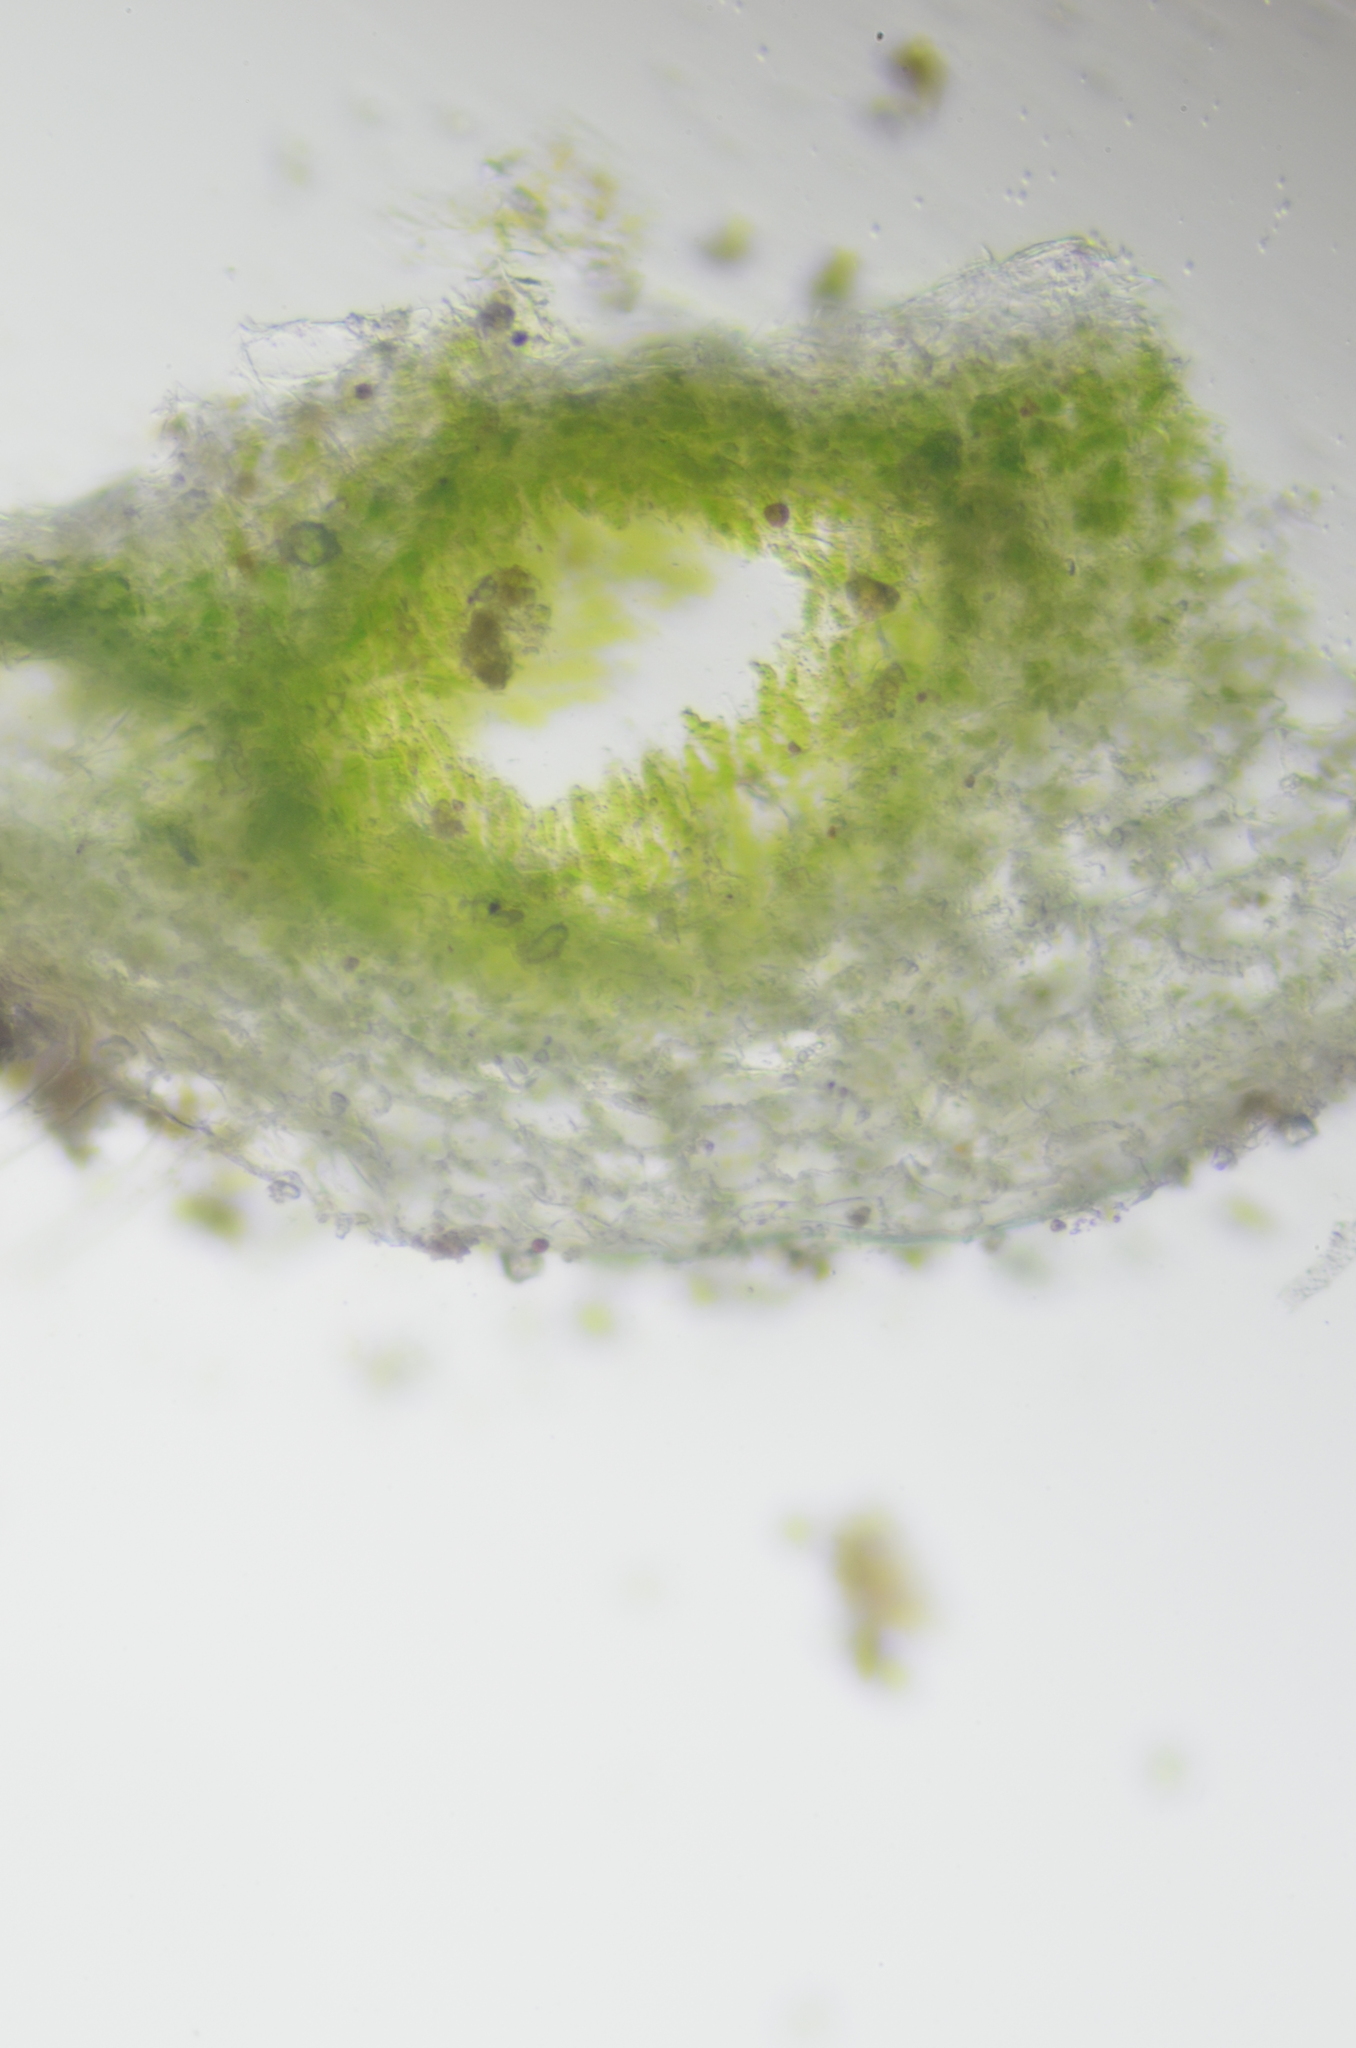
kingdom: Plantae
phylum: Marchantiophyta
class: Marchantiopsida
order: Marchantiales
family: Ricciaceae
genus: Riccia
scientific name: Riccia glauca
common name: Glaucous crystalwort
